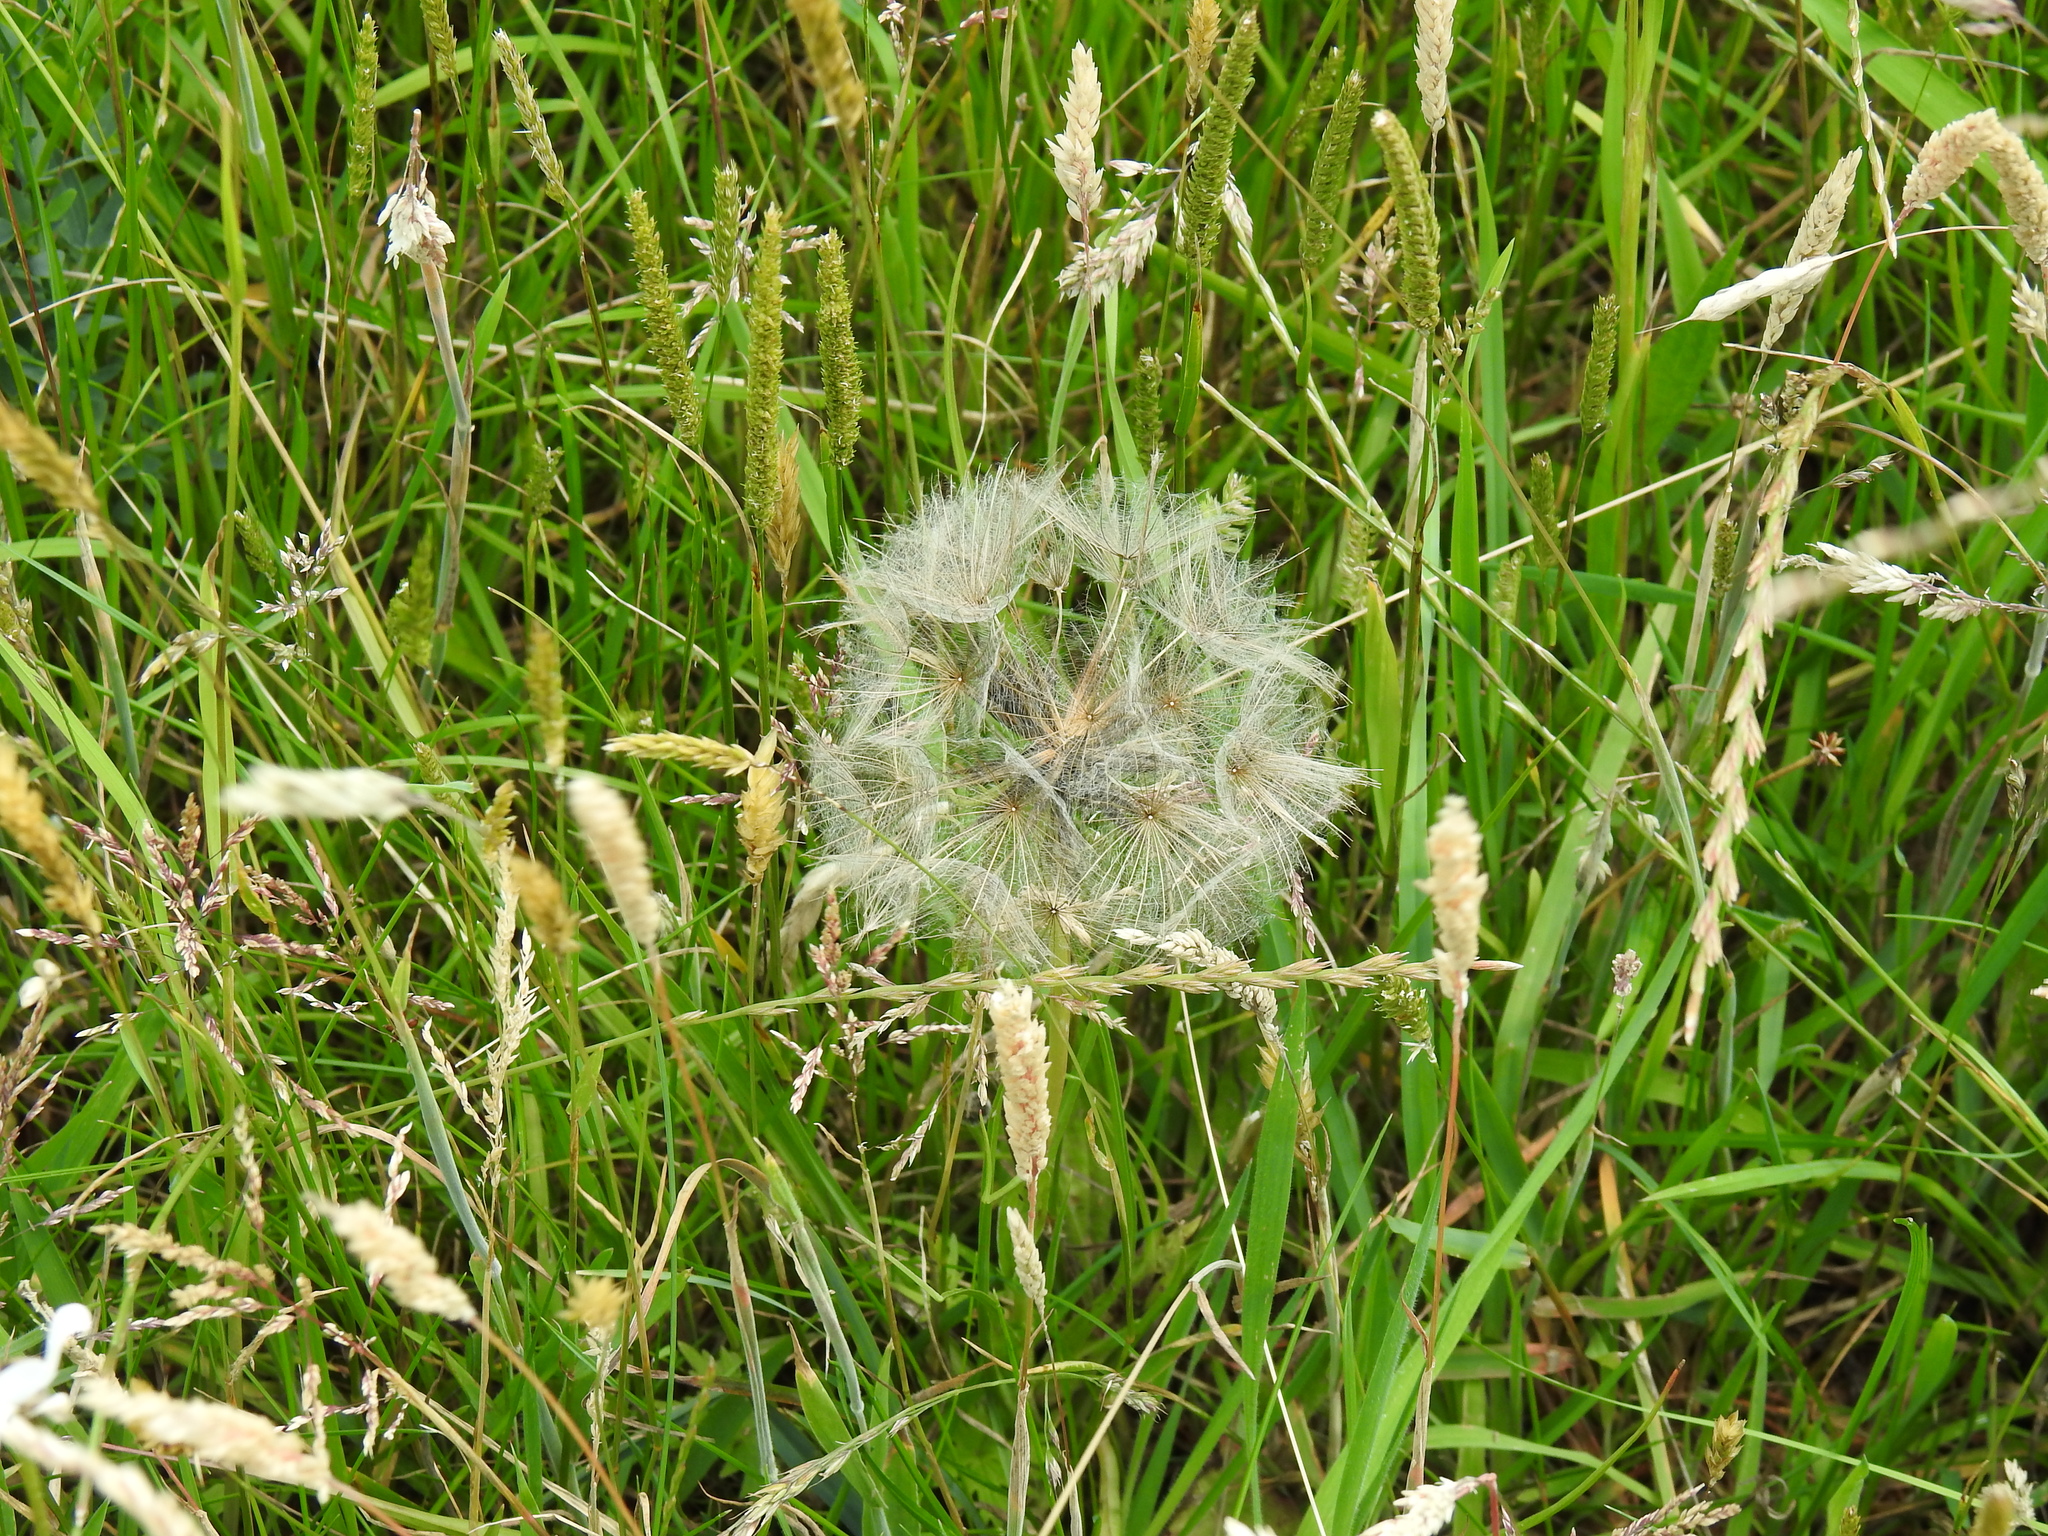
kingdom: Plantae
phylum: Tracheophyta
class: Magnoliopsida
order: Asterales
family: Asteraceae
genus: Tragopogon
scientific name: Tragopogon pratensis
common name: Goat's-beard
